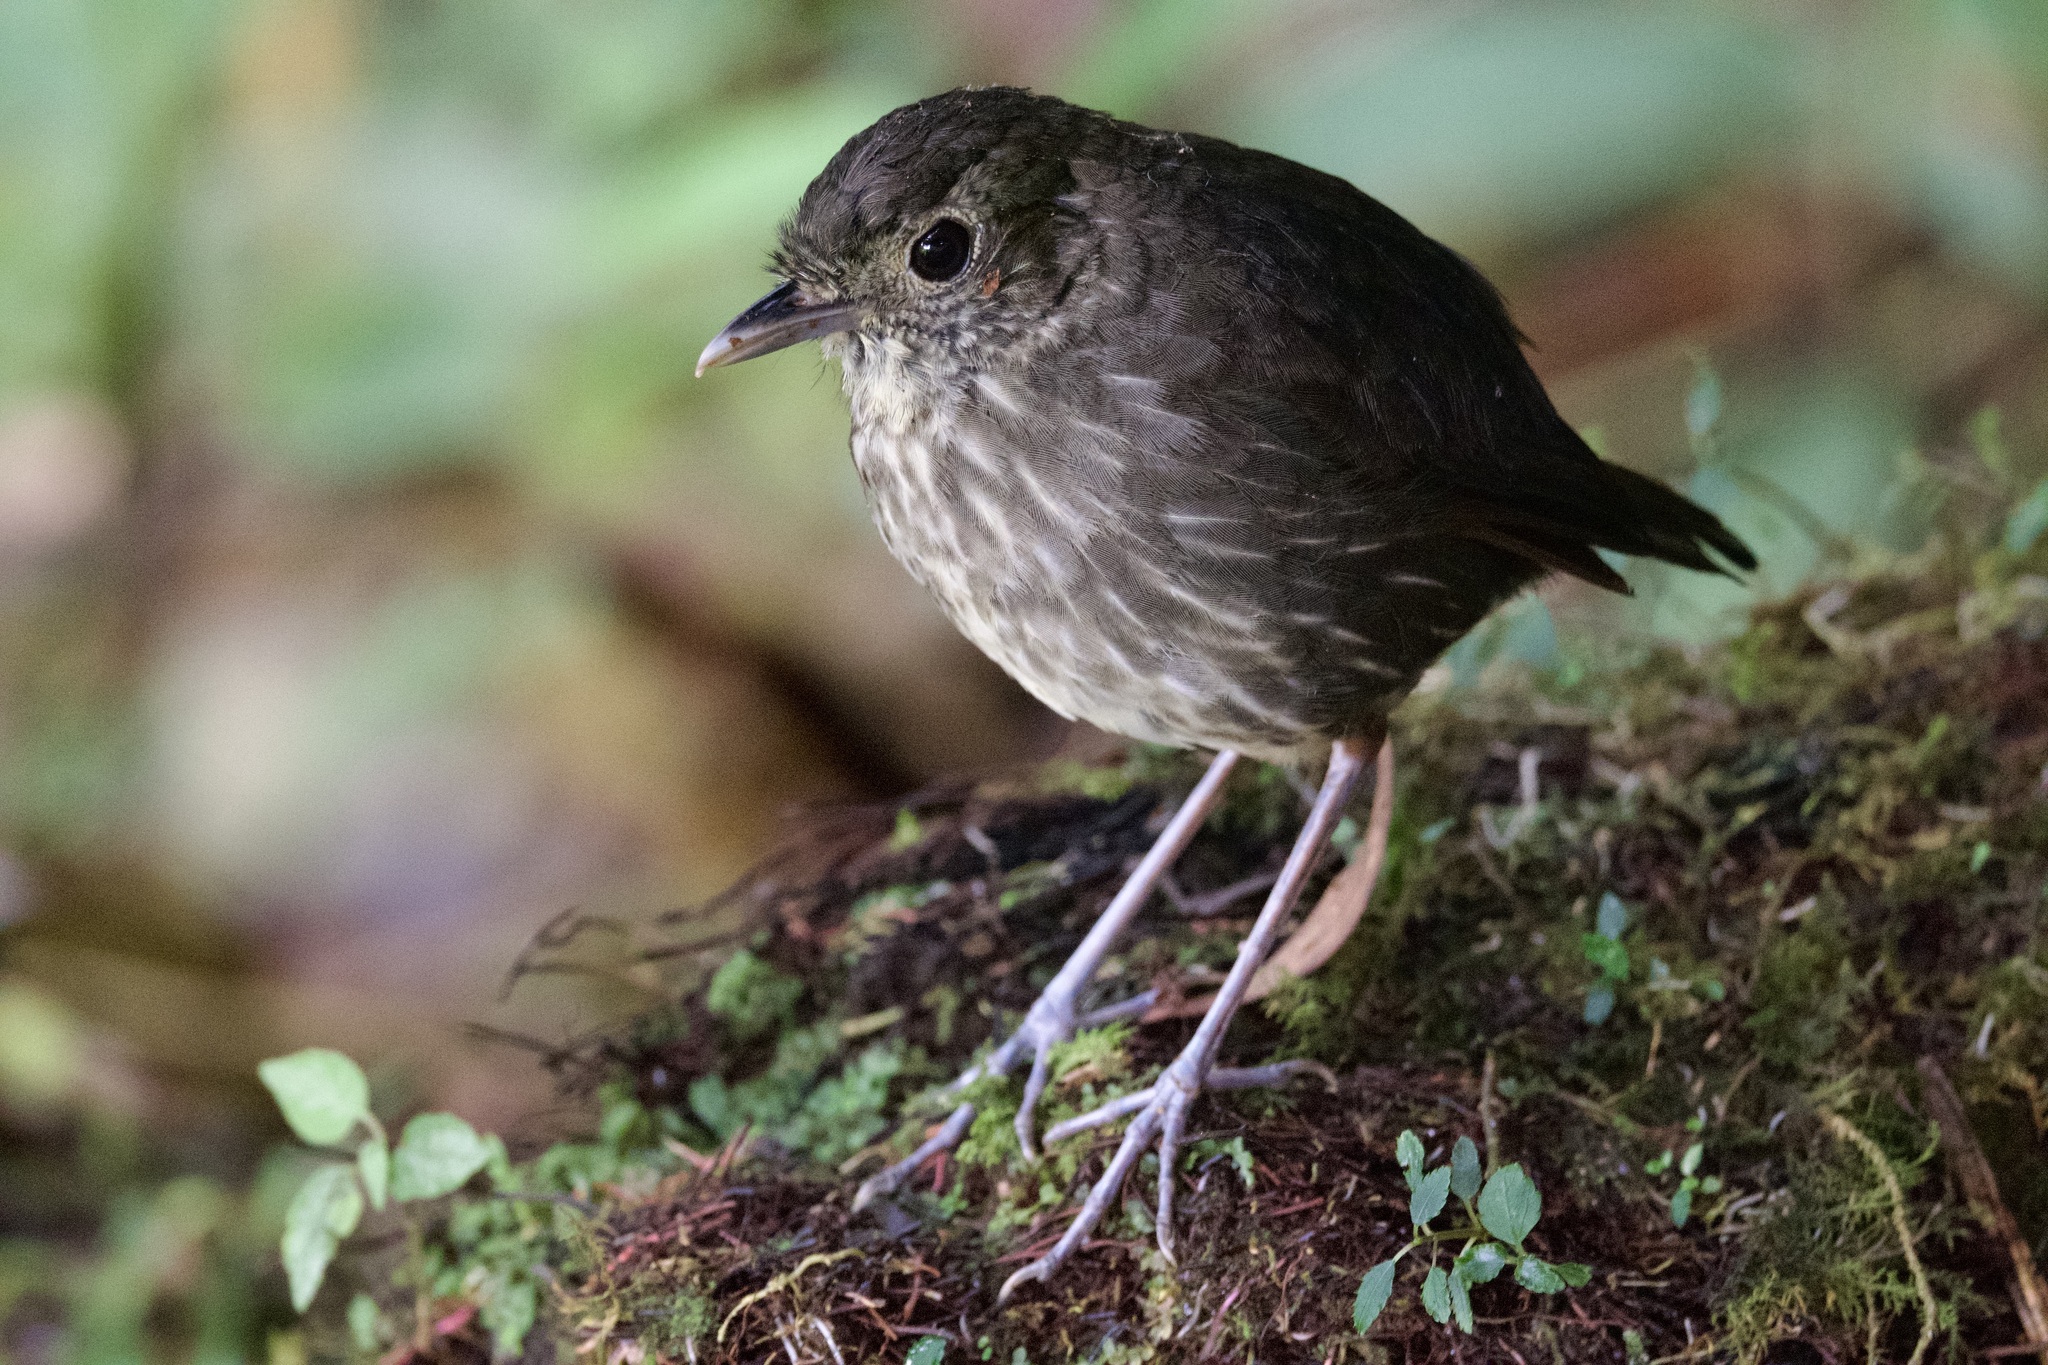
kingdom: Animalia
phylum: Chordata
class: Aves
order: Passeriformes
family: Grallariidae
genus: Grallaria
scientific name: Grallaria kaestneri
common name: Cundinamarca antpitta
